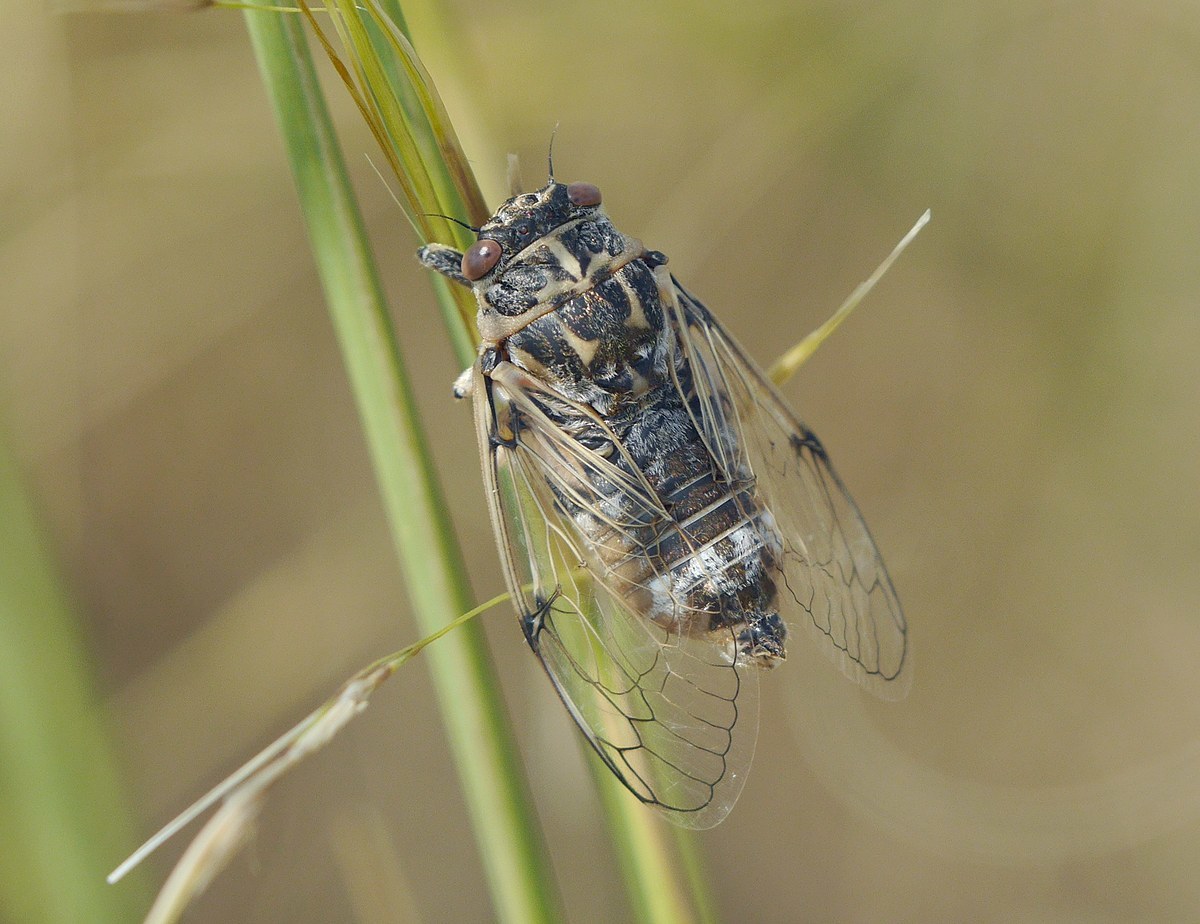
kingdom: Animalia
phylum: Arthropoda
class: Insecta
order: Hemiptera
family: Cicadidae
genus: Cicadatra
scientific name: Cicadatra platyptera
